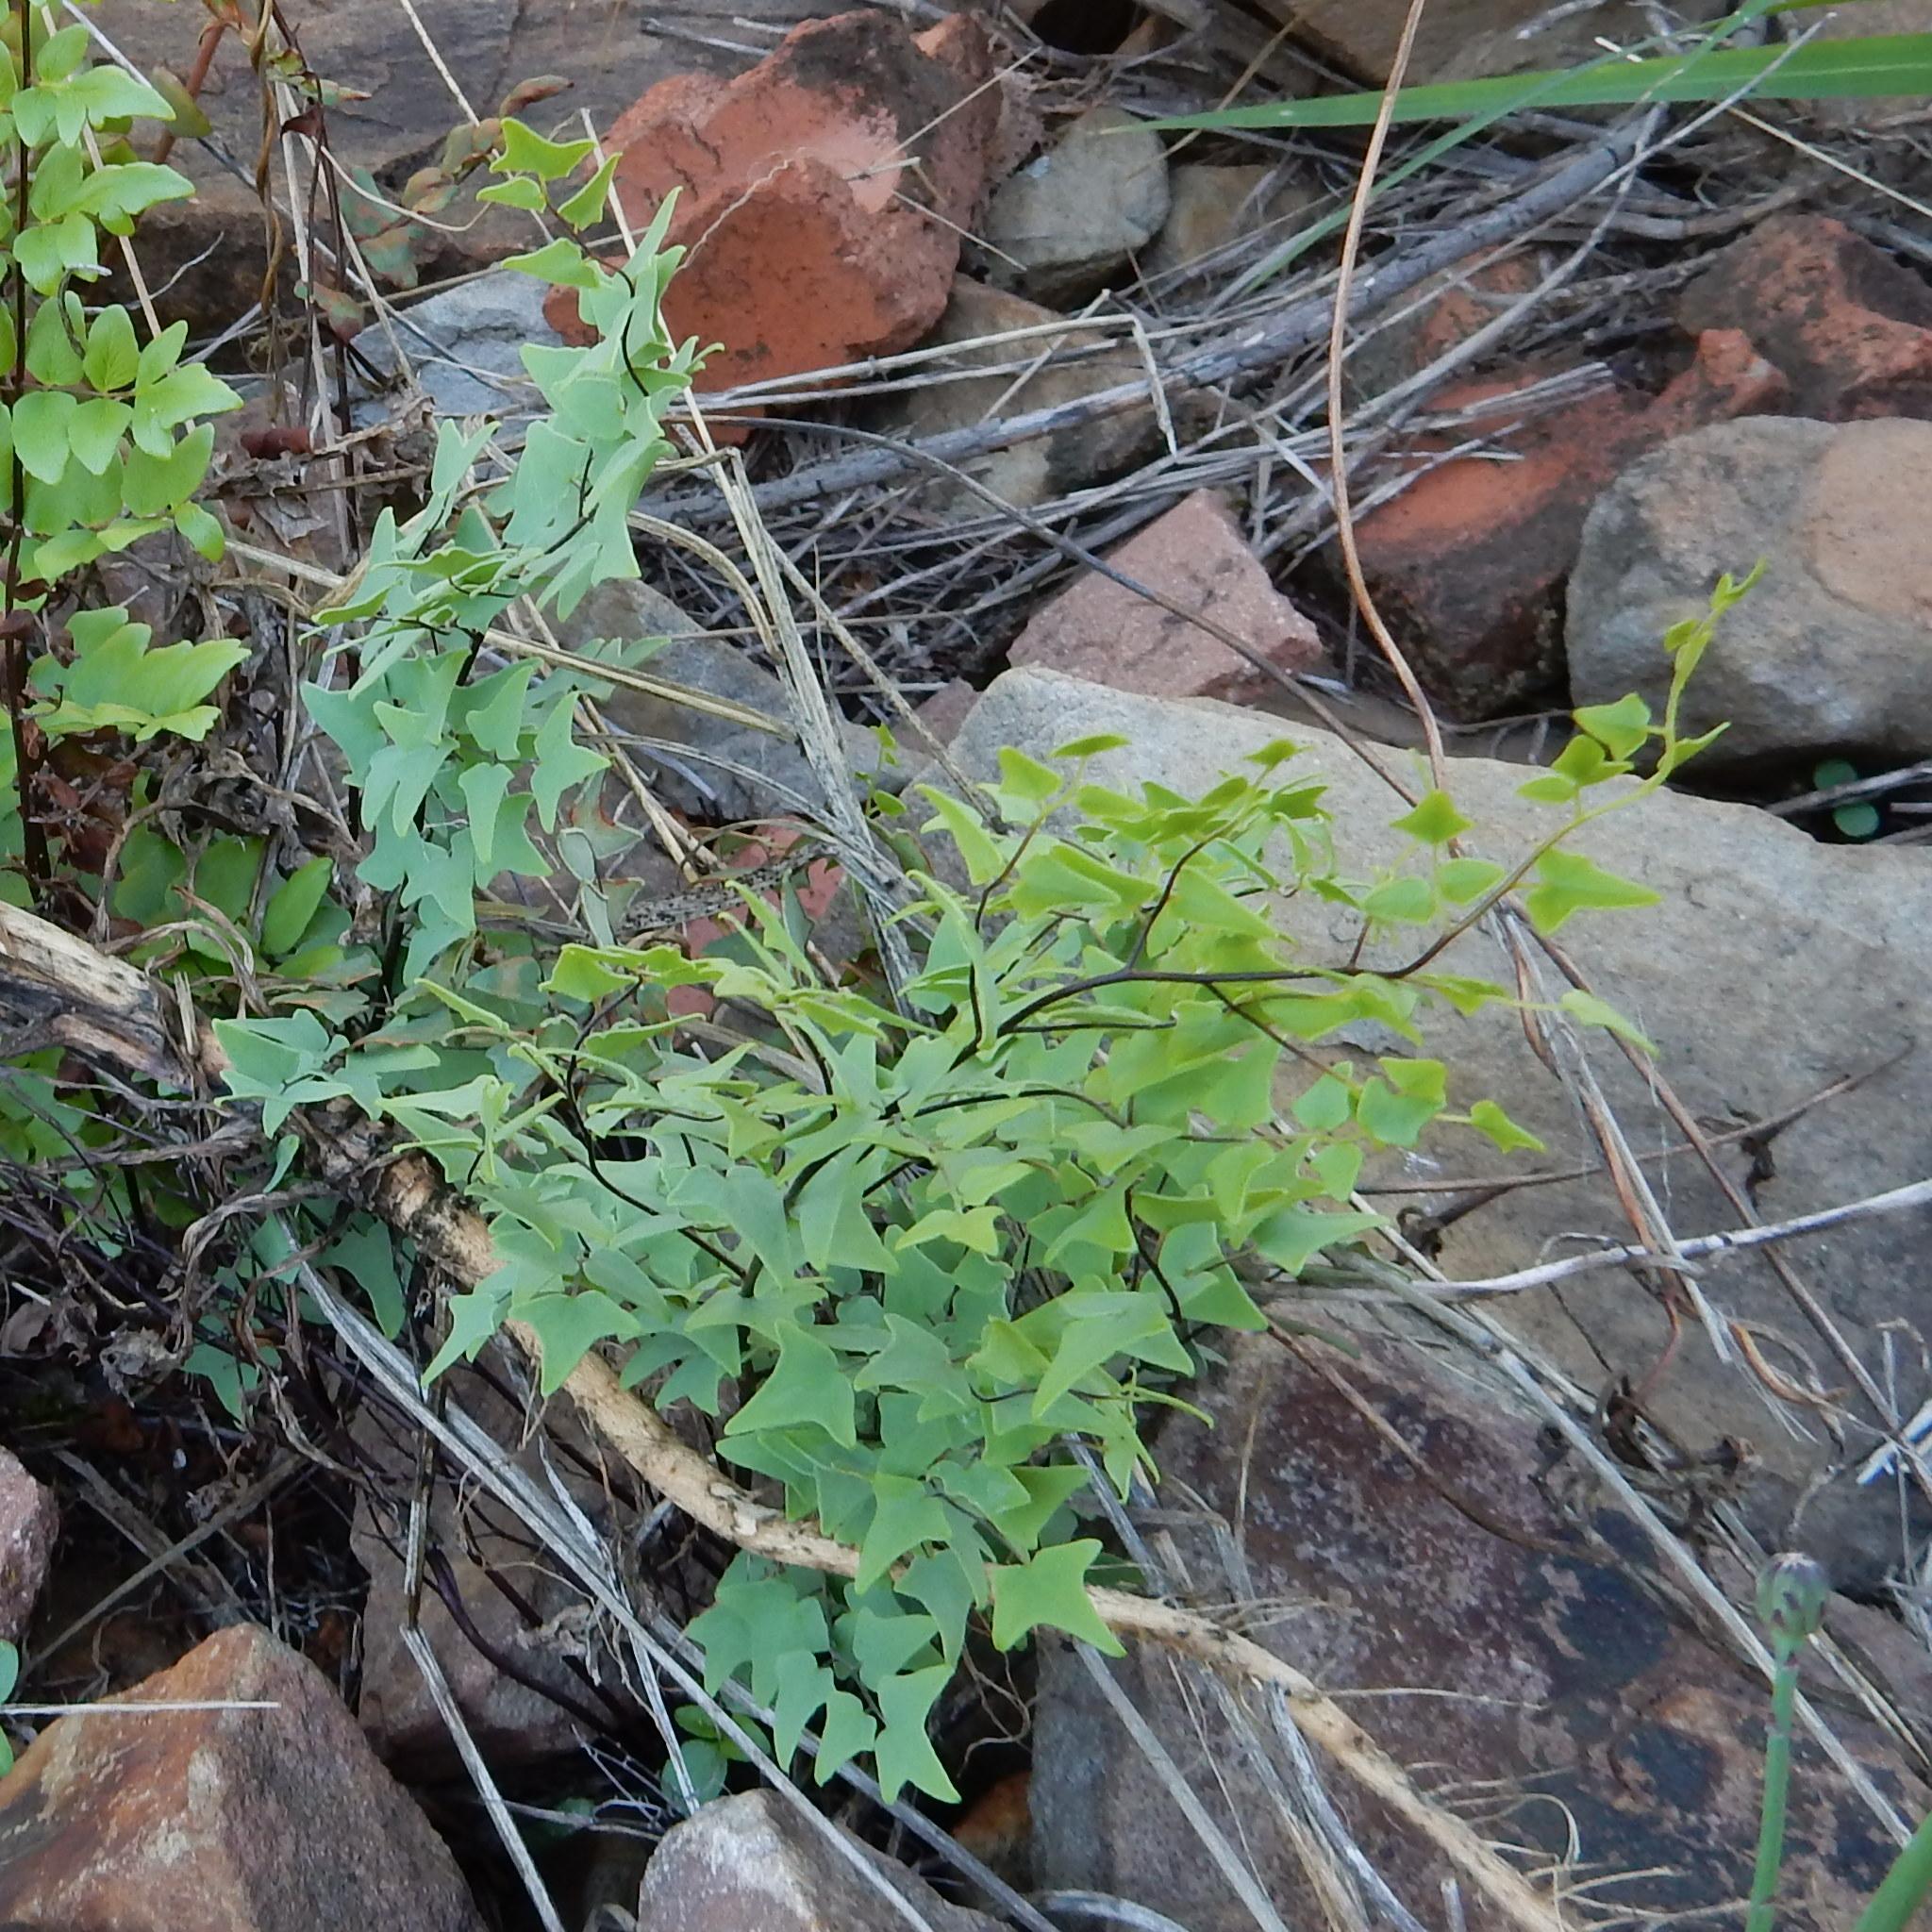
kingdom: Plantae
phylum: Tracheophyta
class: Polypodiopsida
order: Polypodiales
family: Pteridaceae
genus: Pellaea
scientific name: Pellaea calomelanos
